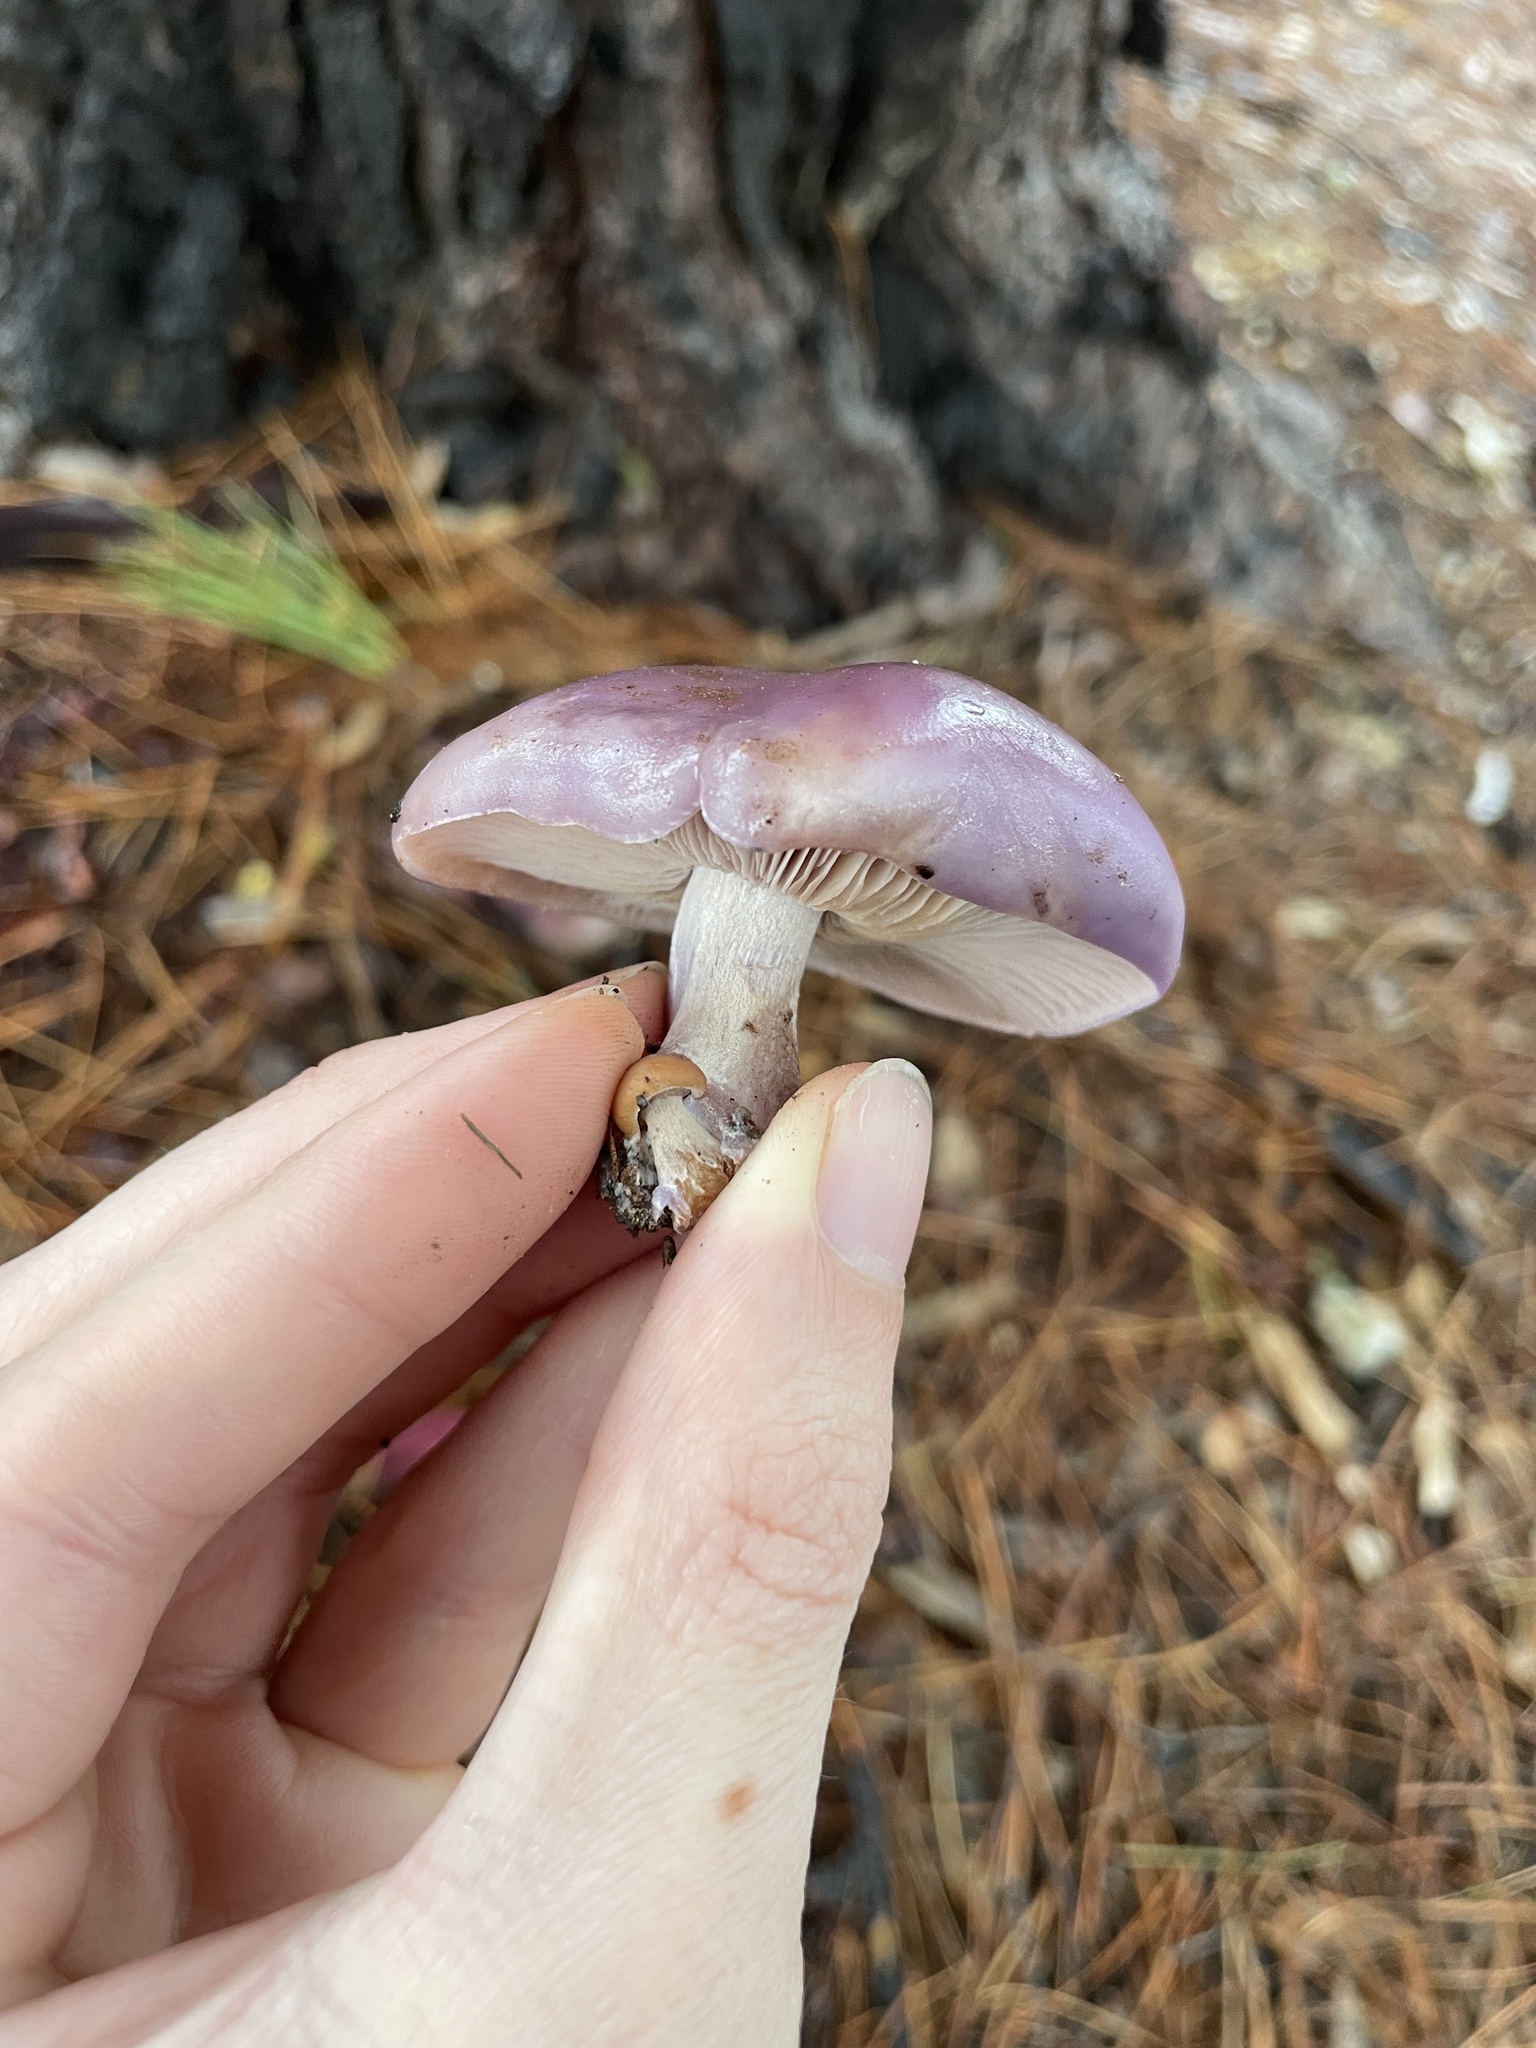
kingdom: Fungi
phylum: Basidiomycota
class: Agaricomycetes
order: Agaricales
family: Tricholomataceae
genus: Collybia
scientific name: Collybia
